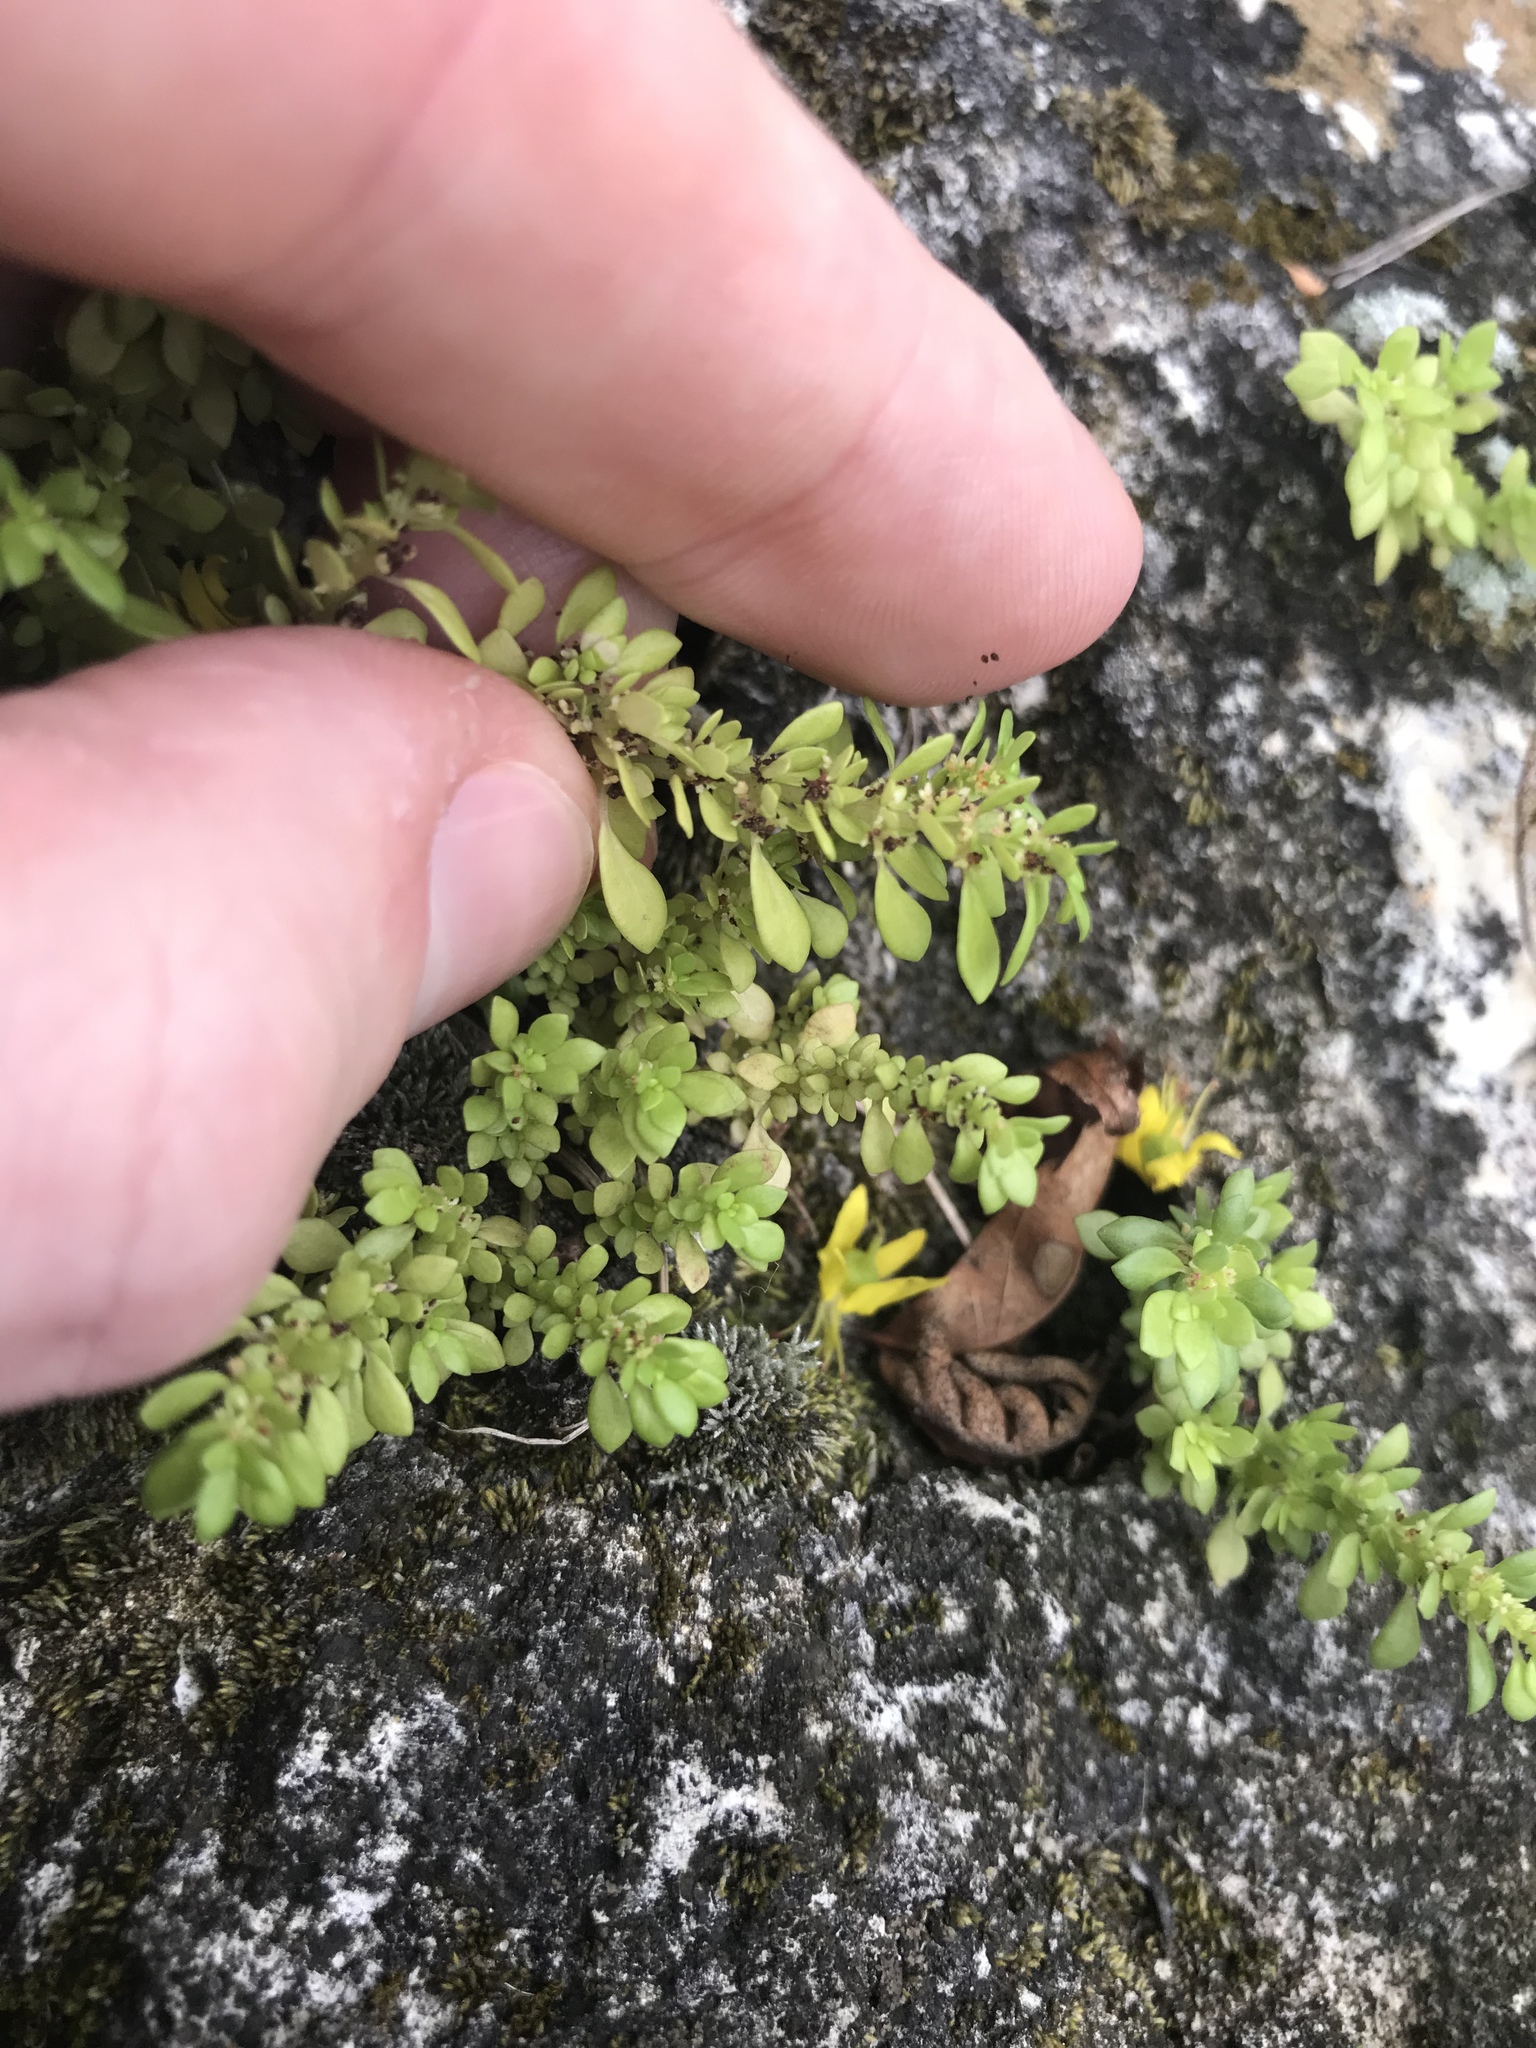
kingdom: Plantae
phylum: Tracheophyta
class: Magnoliopsida
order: Rosales
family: Urticaceae
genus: Pilea
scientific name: Pilea microphylla
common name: Artillery-plant
